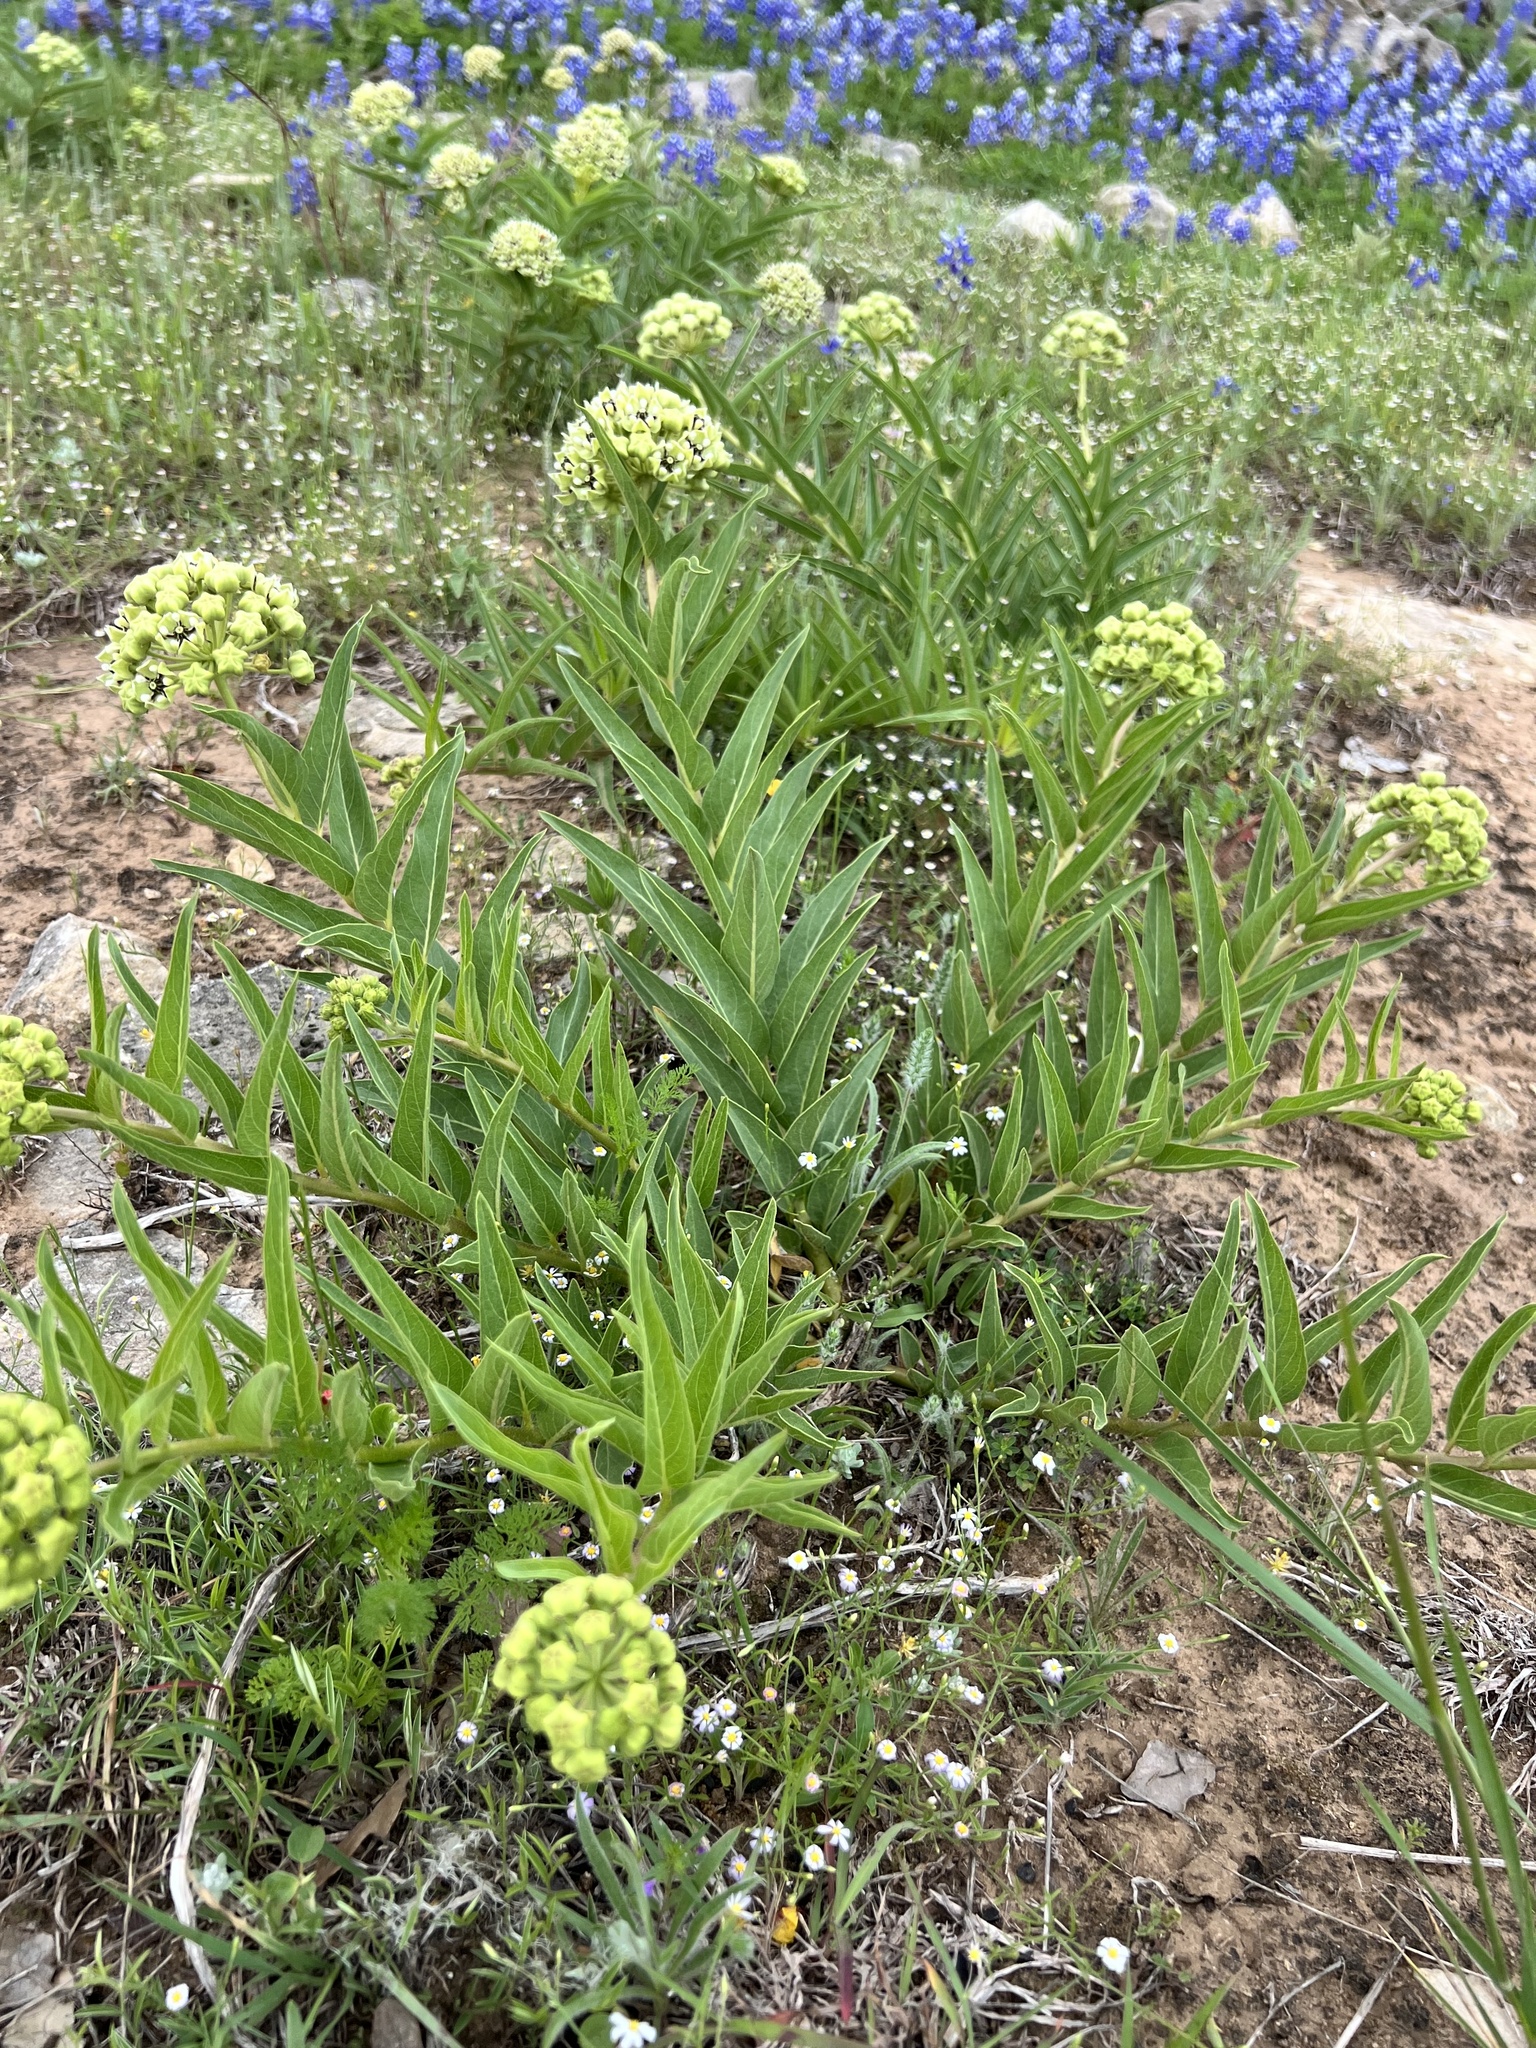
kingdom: Plantae
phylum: Tracheophyta
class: Magnoliopsida
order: Gentianales
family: Apocynaceae
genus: Asclepias
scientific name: Asclepias asperula
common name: Antelope horns
